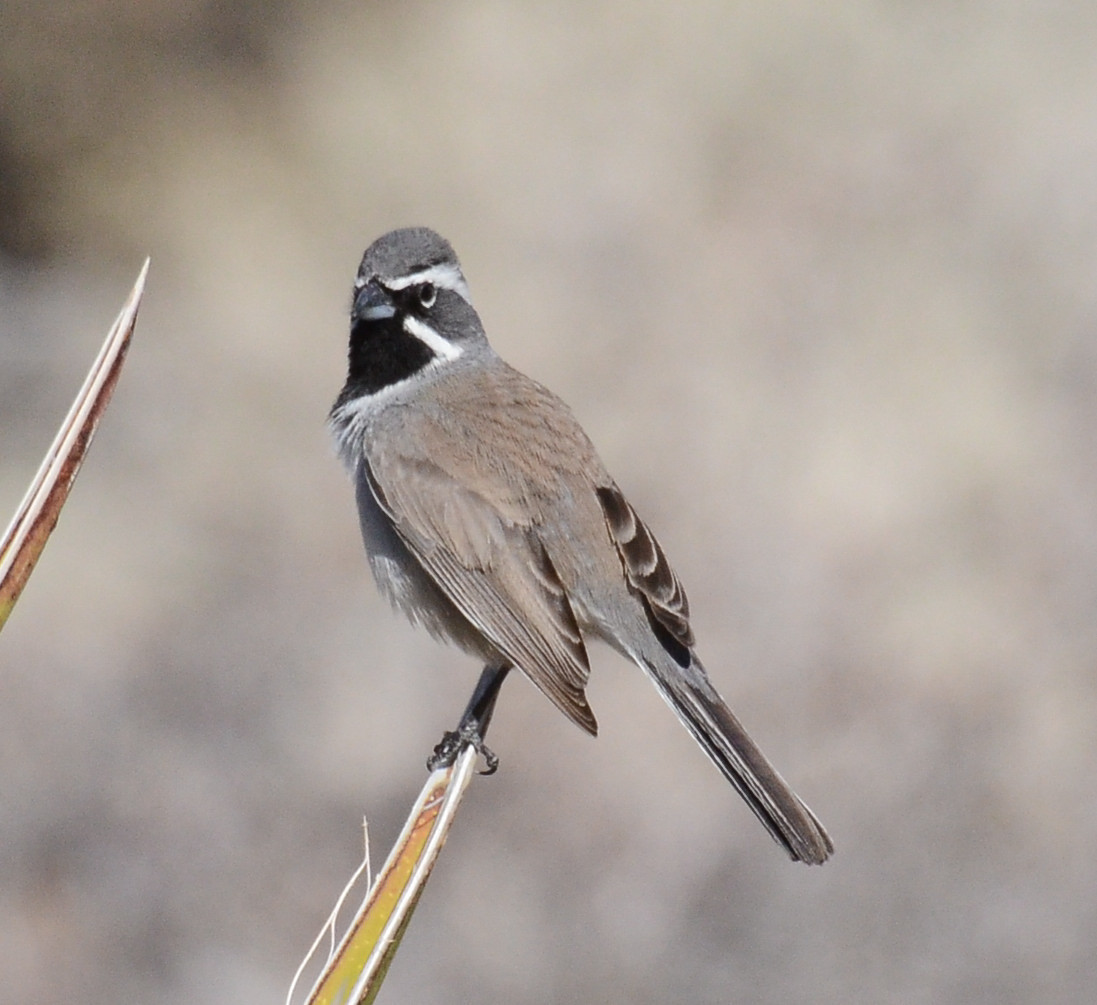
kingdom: Animalia
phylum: Chordata
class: Aves
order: Passeriformes
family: Passerellidae
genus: Amphispiza
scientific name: Amphispiza bilineata
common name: Black-throated sparrow
